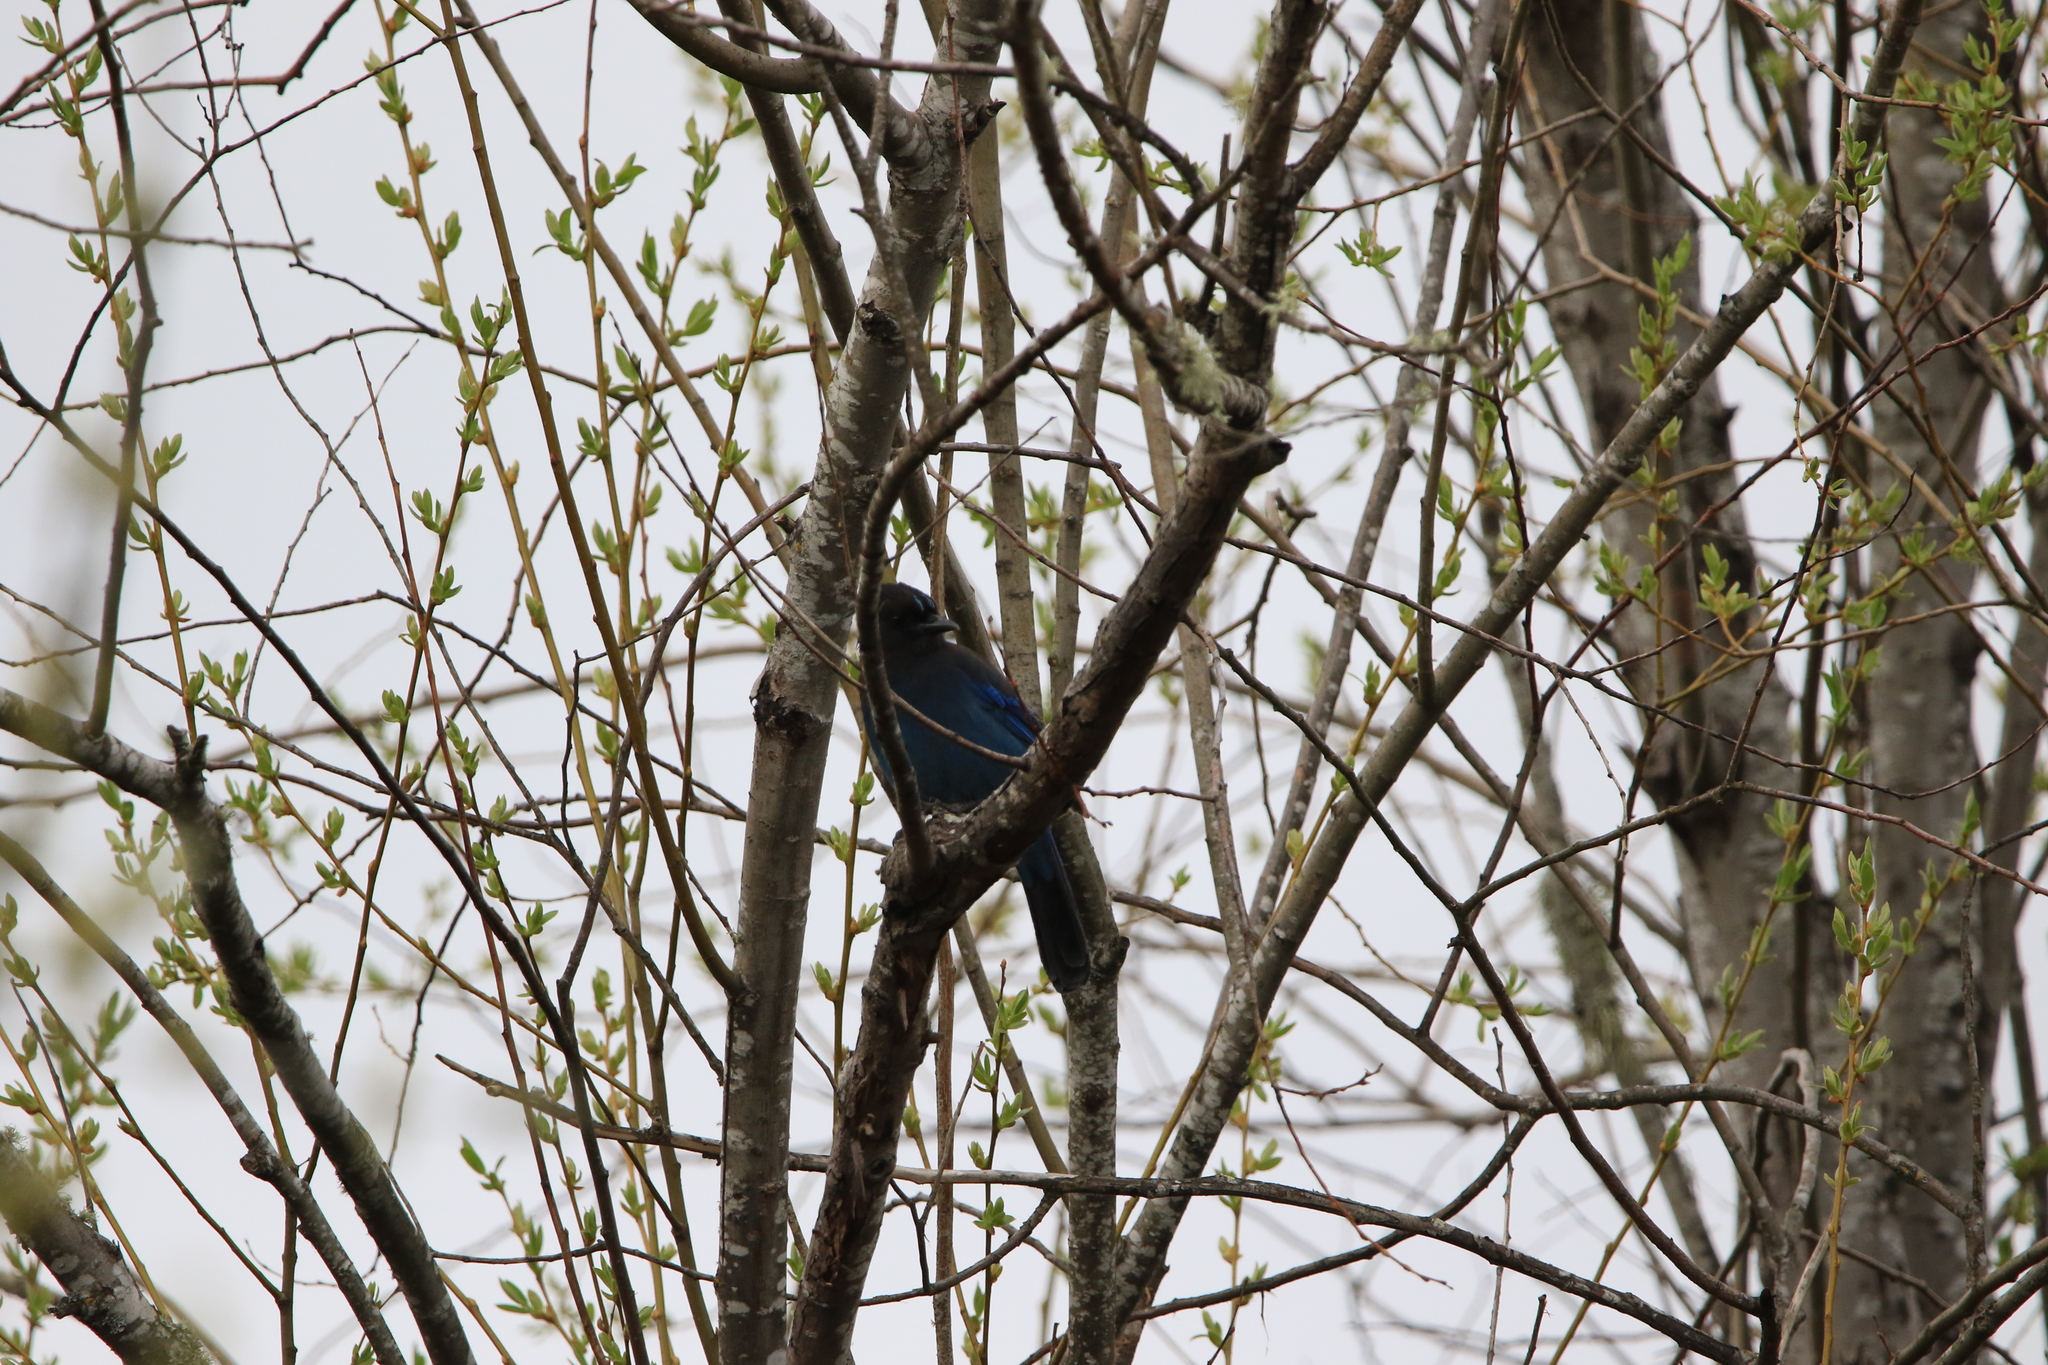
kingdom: Animalia
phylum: Chordata
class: Aves
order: Passeriformes
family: Corvidae
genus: Cyanocitta
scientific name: Cyanocitta stelleri
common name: Steller's jay
